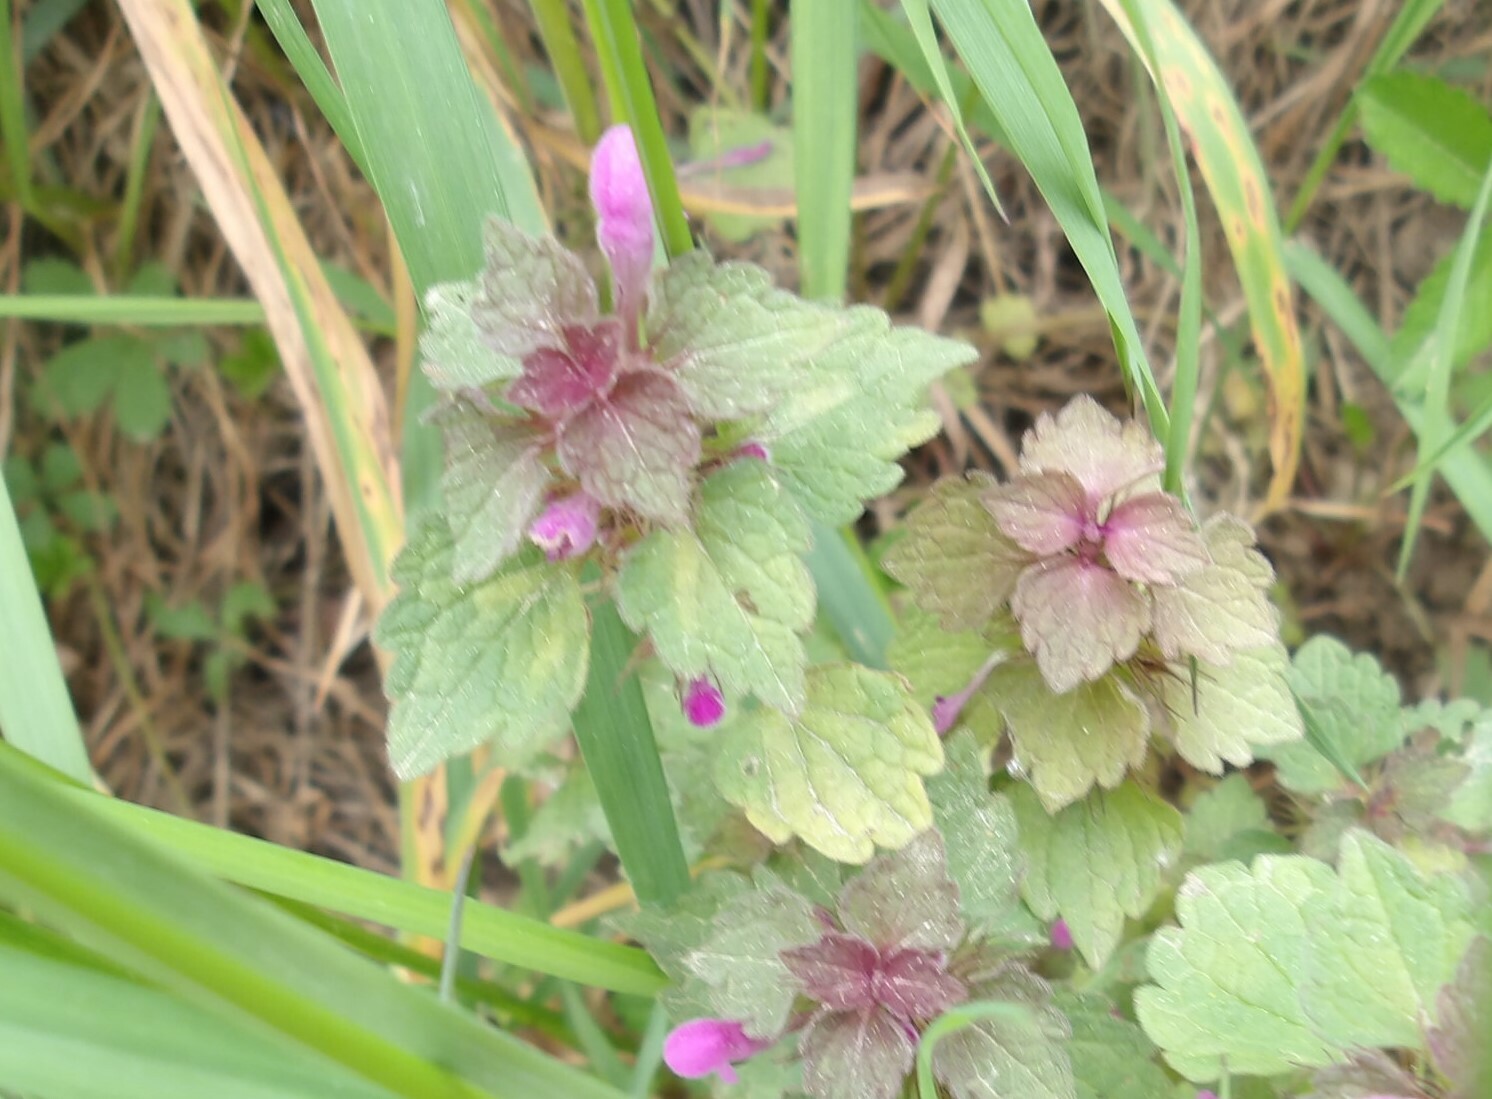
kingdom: Plantae
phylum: Tracheophyta
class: Magnoliopsida
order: Lamiales
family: Lamiaceae
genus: Lamium
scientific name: Lamium purpureum
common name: Red dead-nettle
